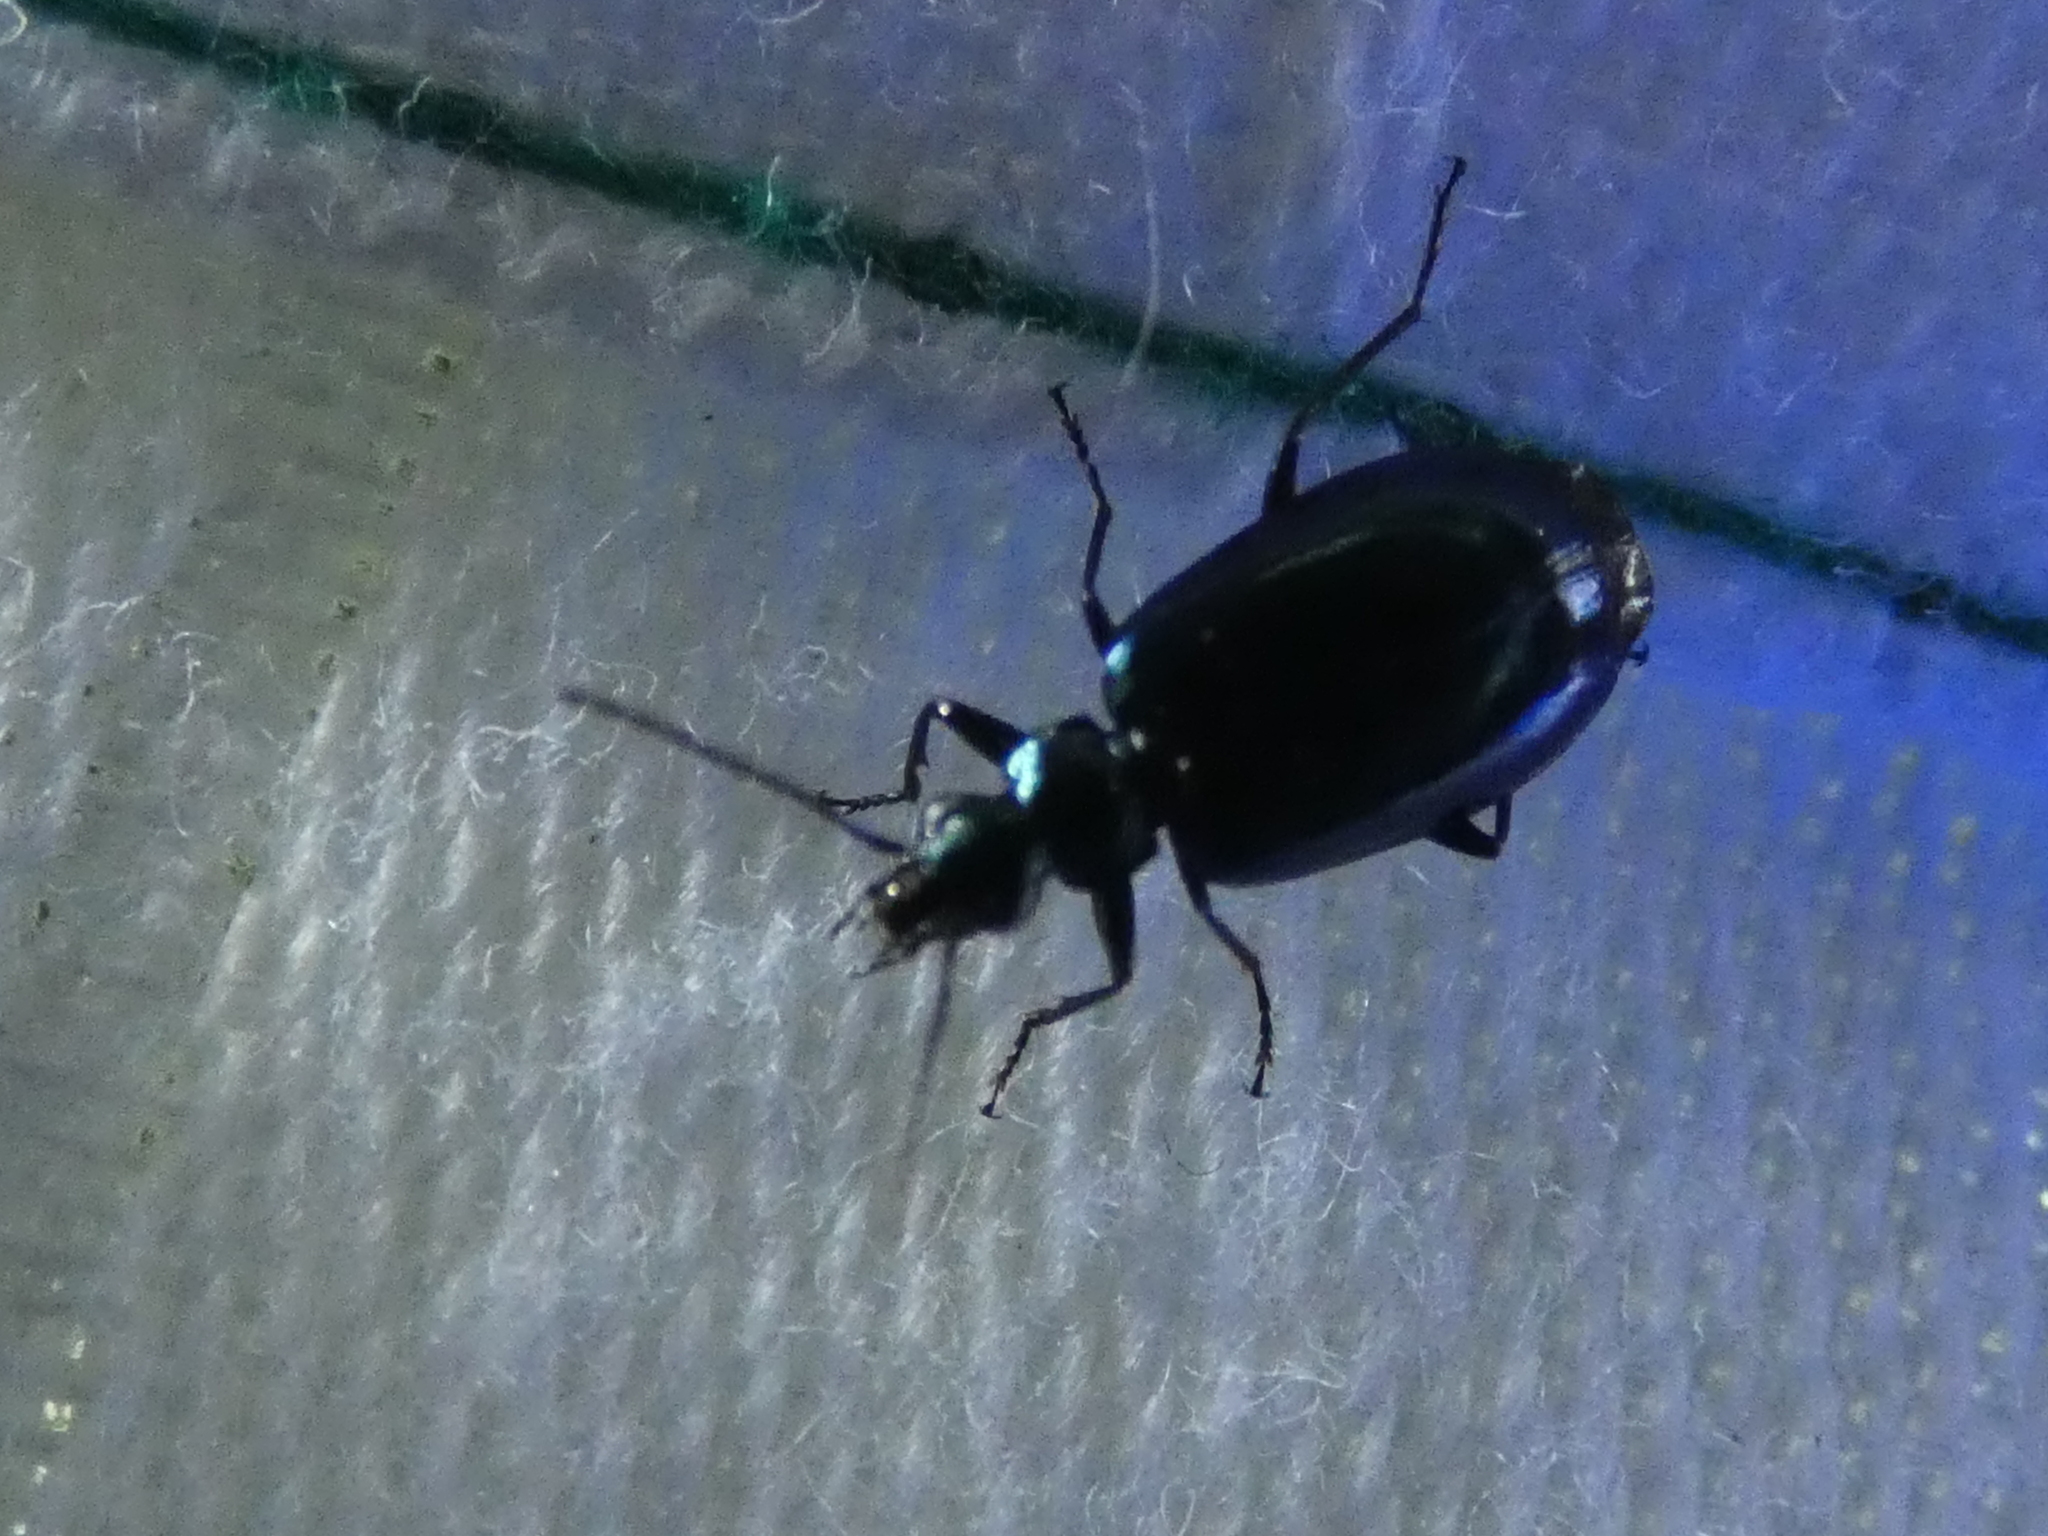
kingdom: Animalia
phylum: Arthropoda
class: Insecta
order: Coleoptera
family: Carabidae
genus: Lebia
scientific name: Lebia viridis
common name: Flower lebia beetle
